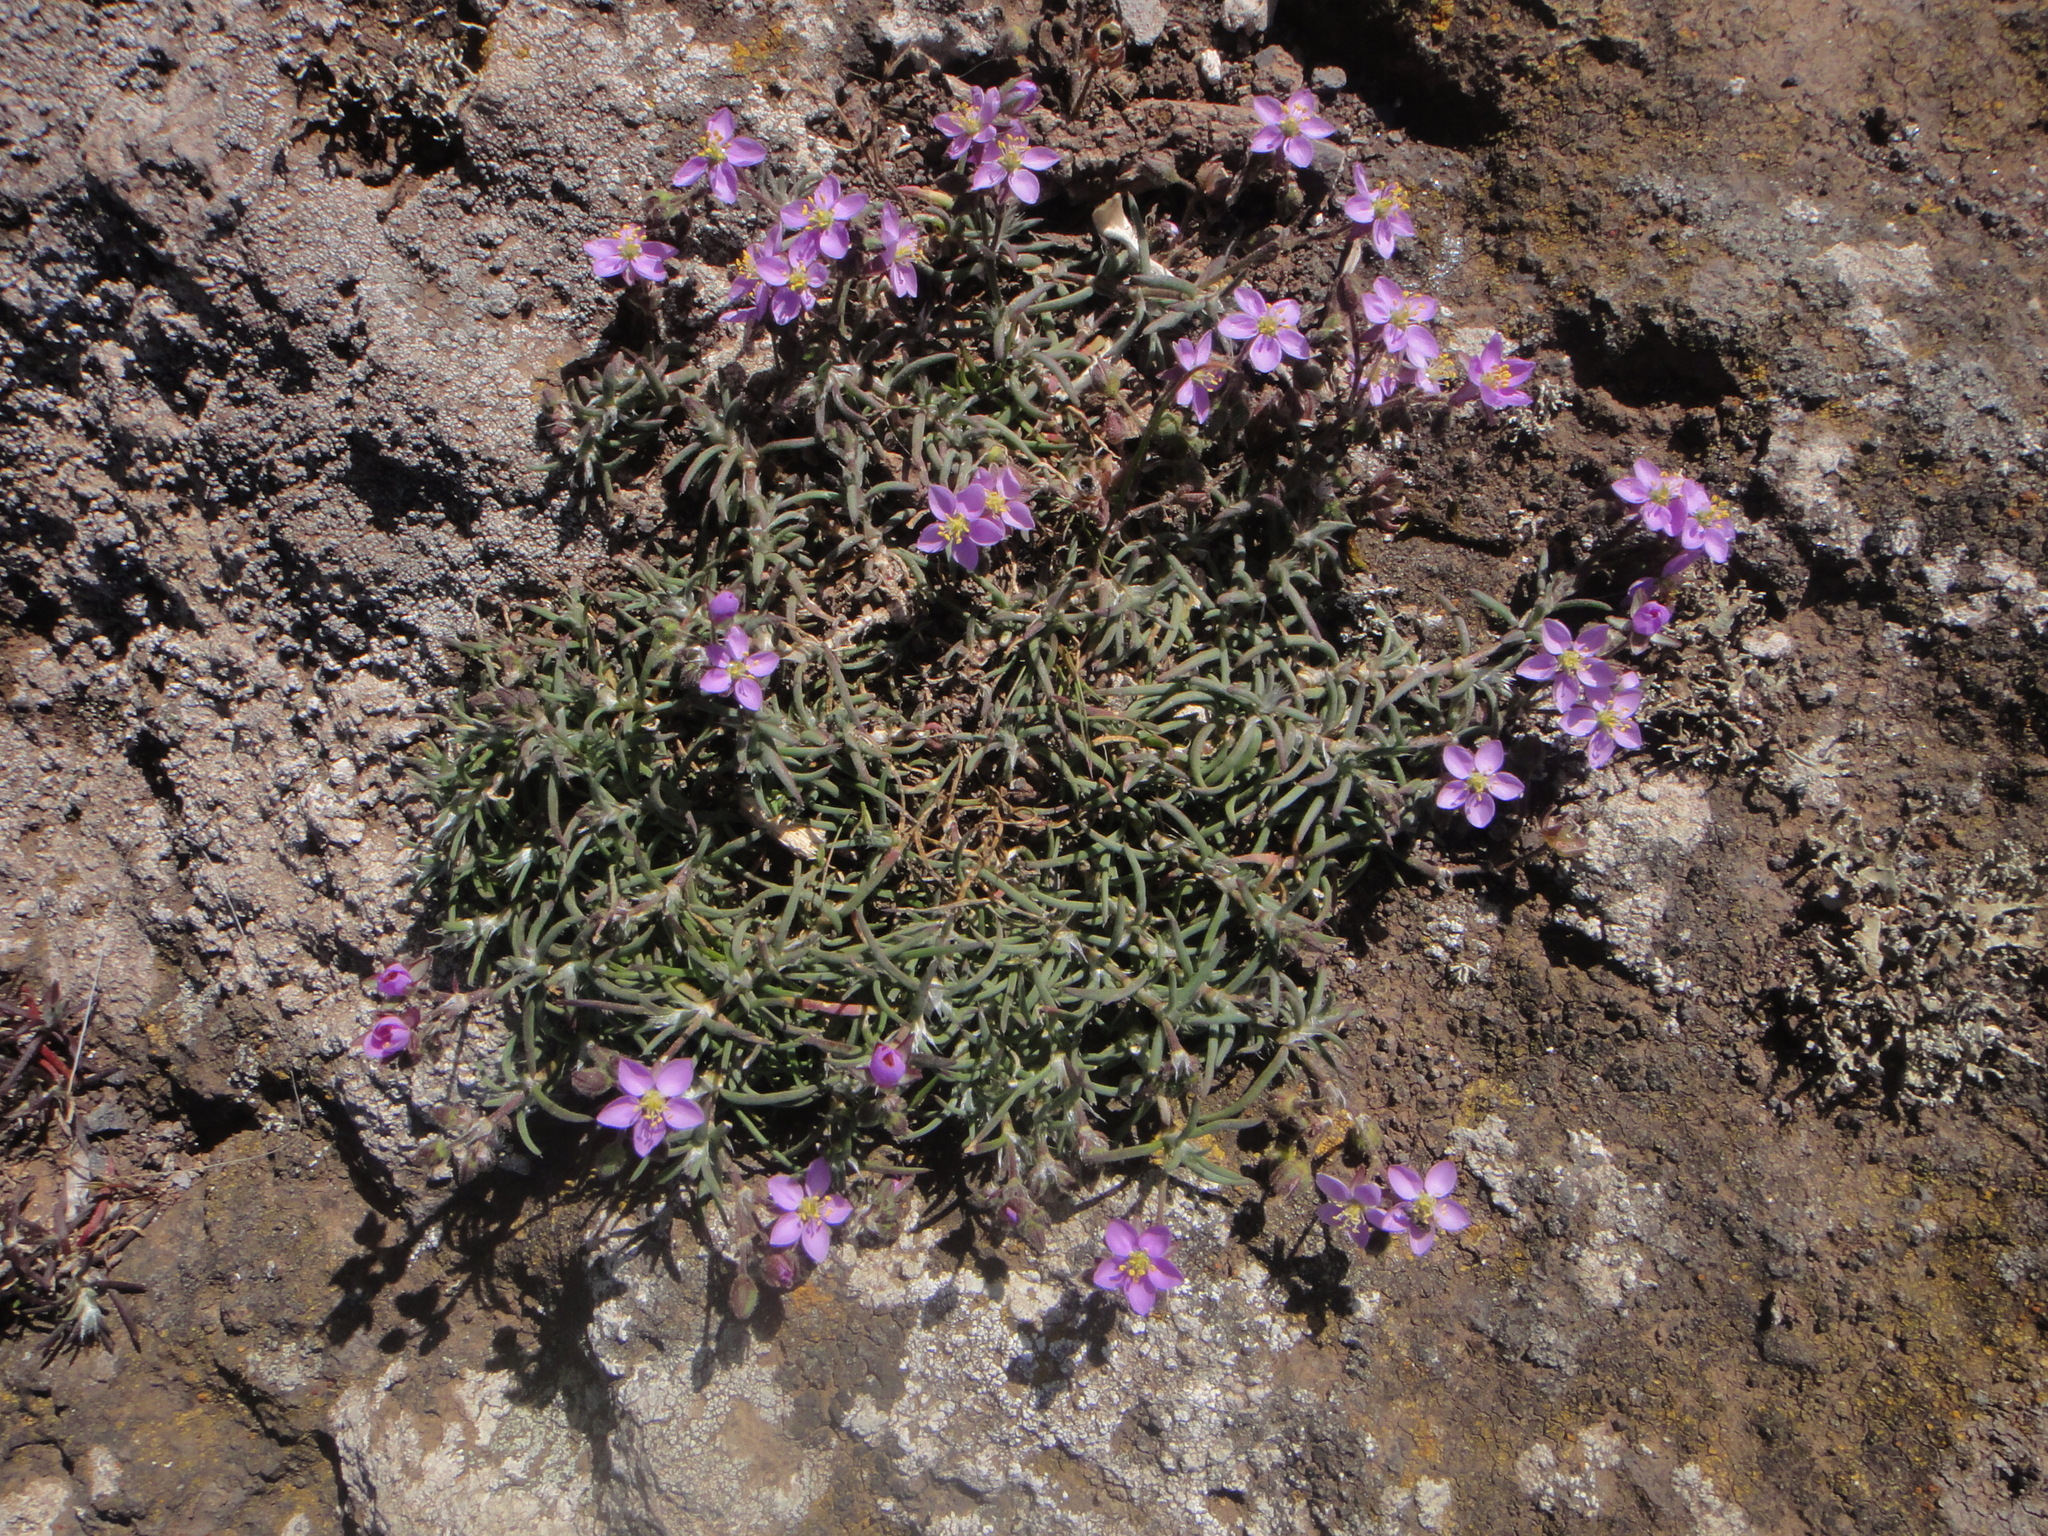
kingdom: Plantae
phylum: Tracheophyta
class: Magnoliopsida
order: Caryophyllales
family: Caryophyllaceae
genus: Spergularia
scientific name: Spergularia fimbriata
